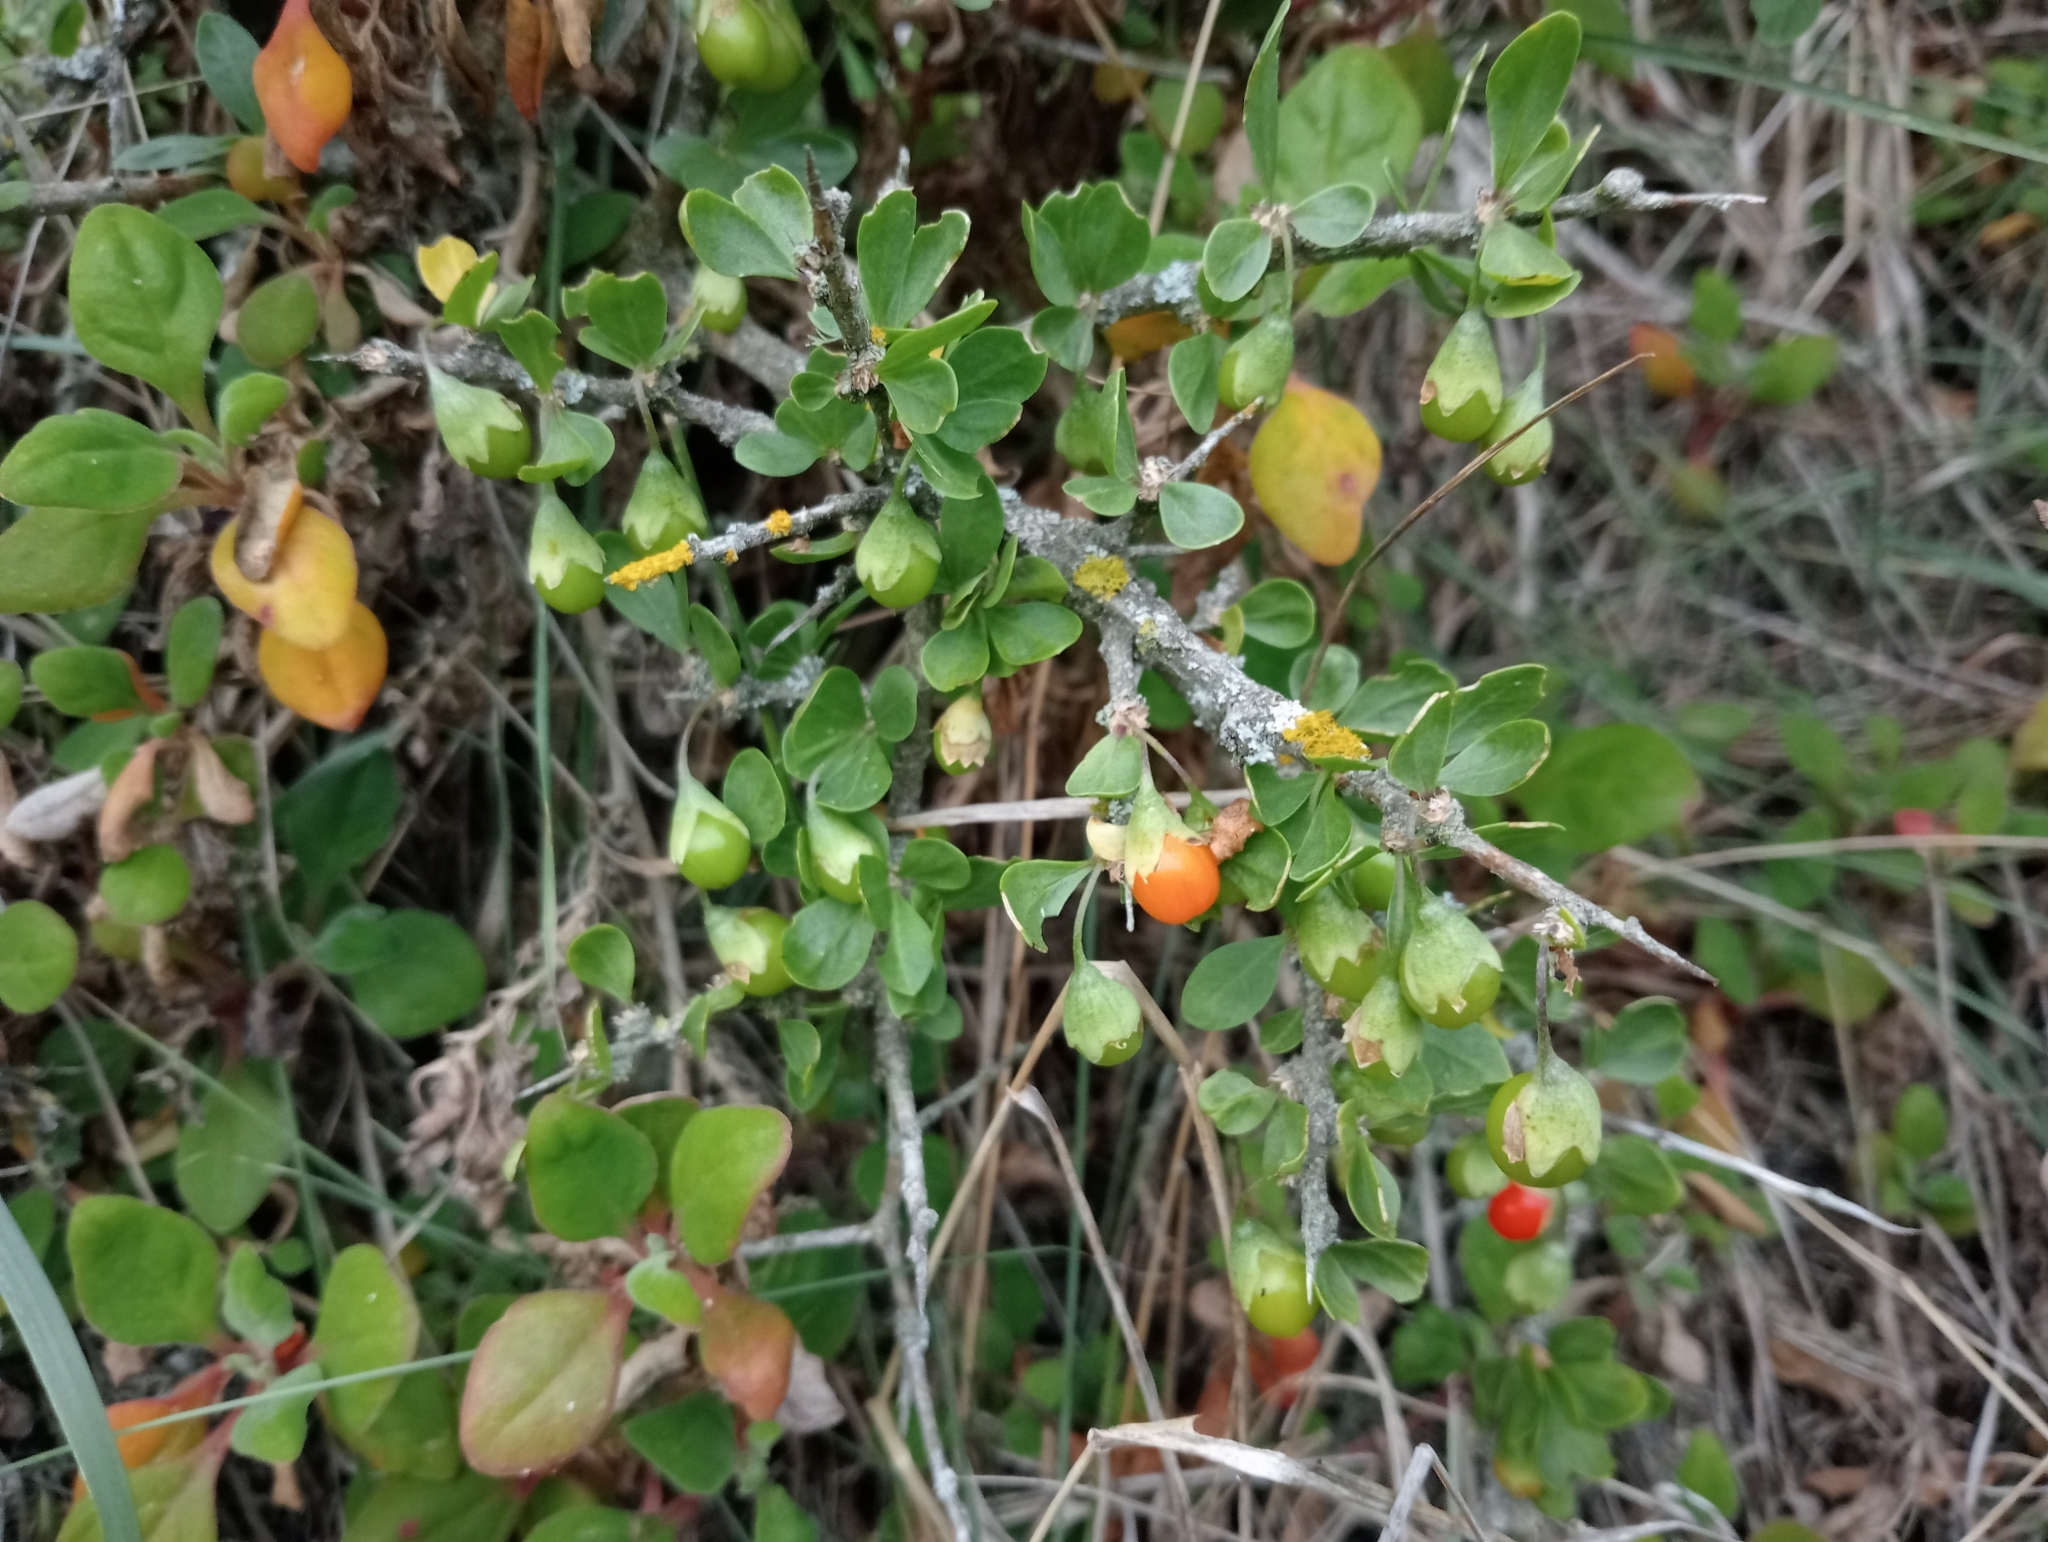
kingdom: Plantae
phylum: Tracheophyta
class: Magnoliopsida
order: Solanales
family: Solanaceae
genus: Lycium
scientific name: Lycium ferocissimum
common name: African boxthorn
